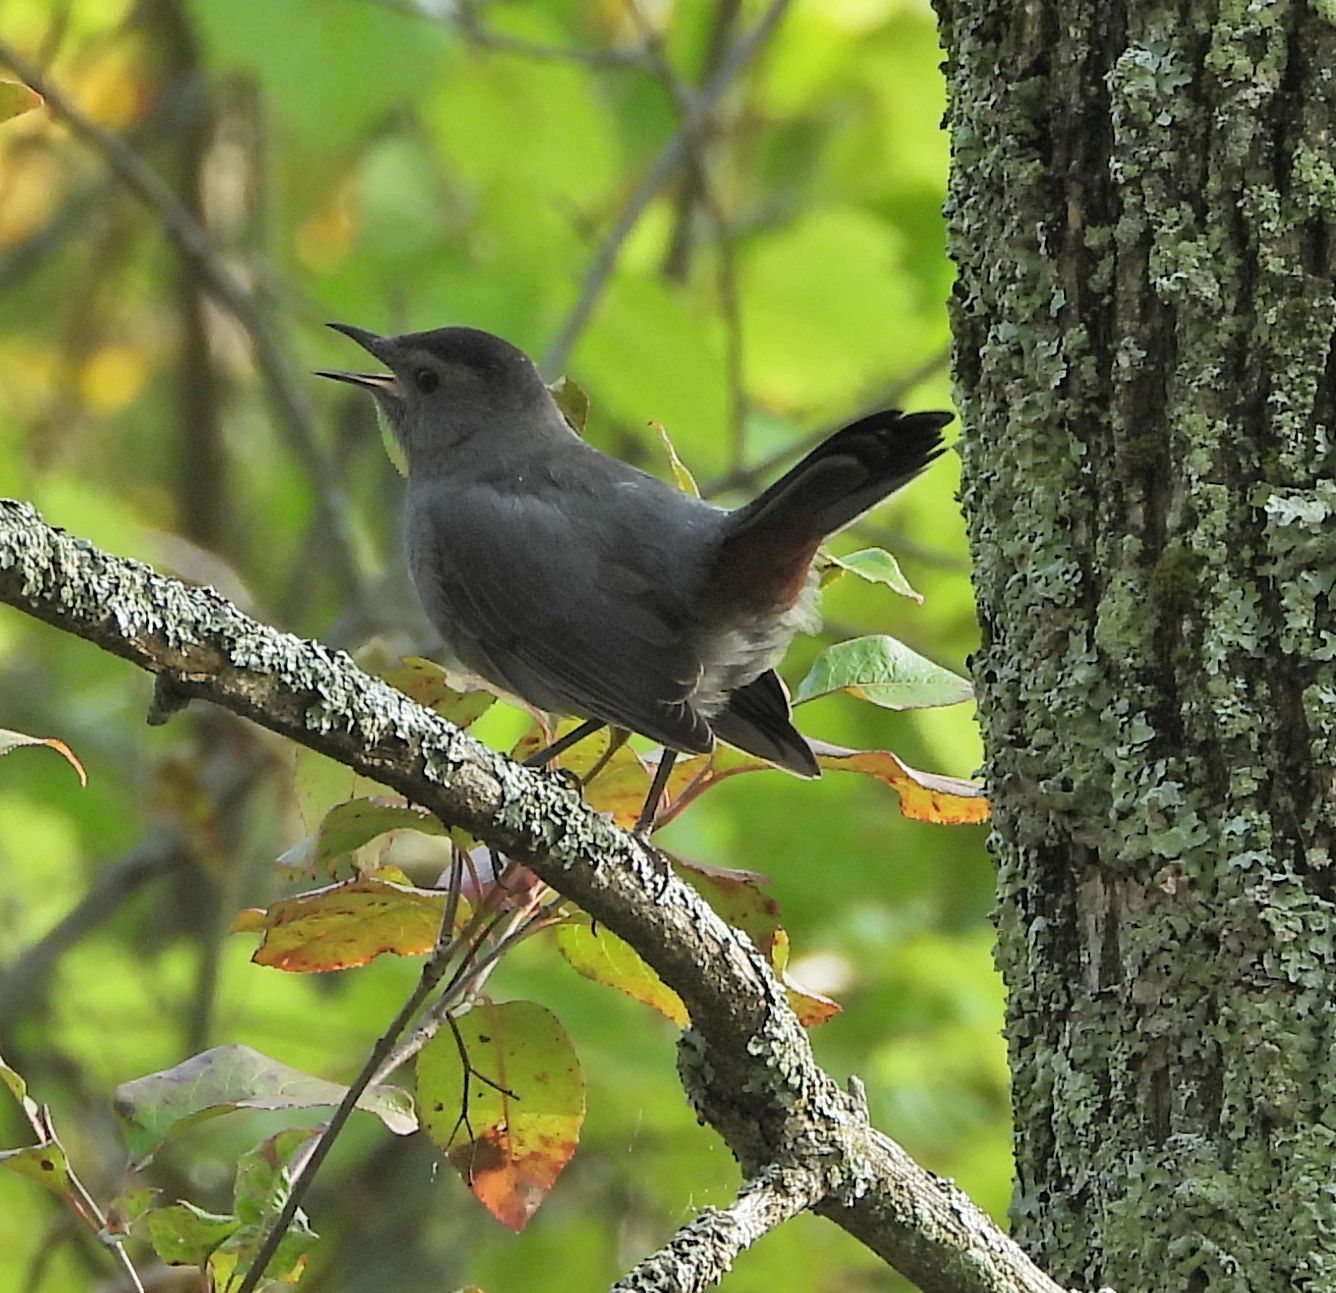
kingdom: Animalia
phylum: Chordata
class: Aves
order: Passeriformes
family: Mimidae
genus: Dumetella
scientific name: Dumetella carolinensis
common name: Gray catbird
